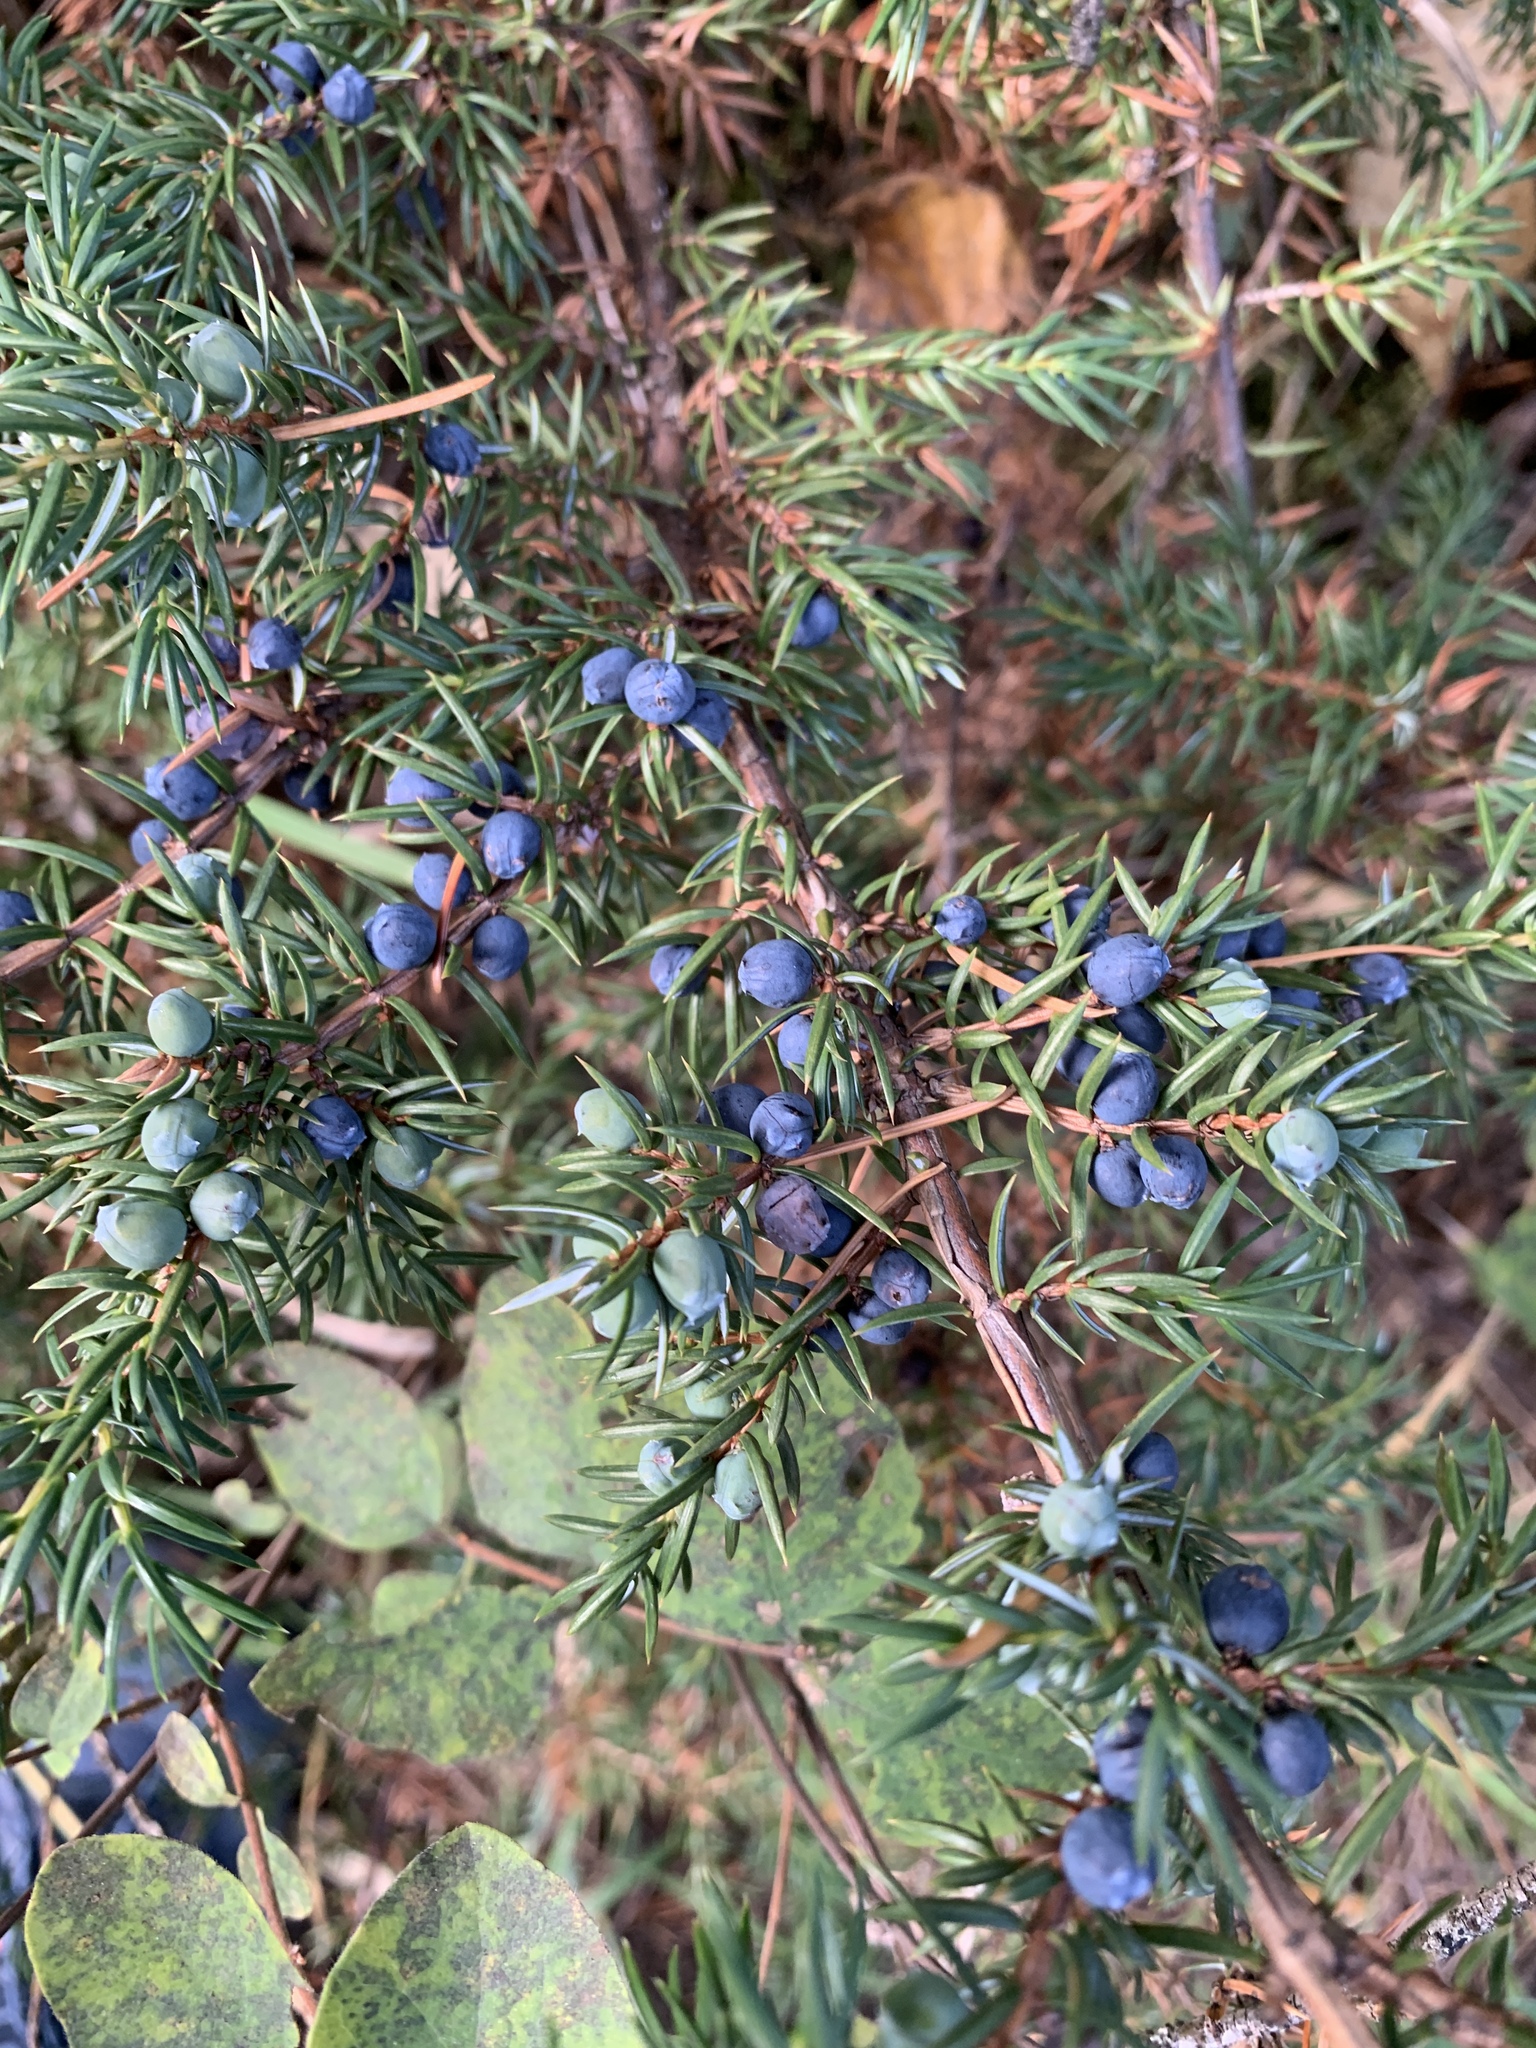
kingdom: Plantae
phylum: Tracheophyta
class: Pinopsida
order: Pinales
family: Cupressaceae
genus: Juniperus
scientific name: Juniperus communis
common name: Common juniper
